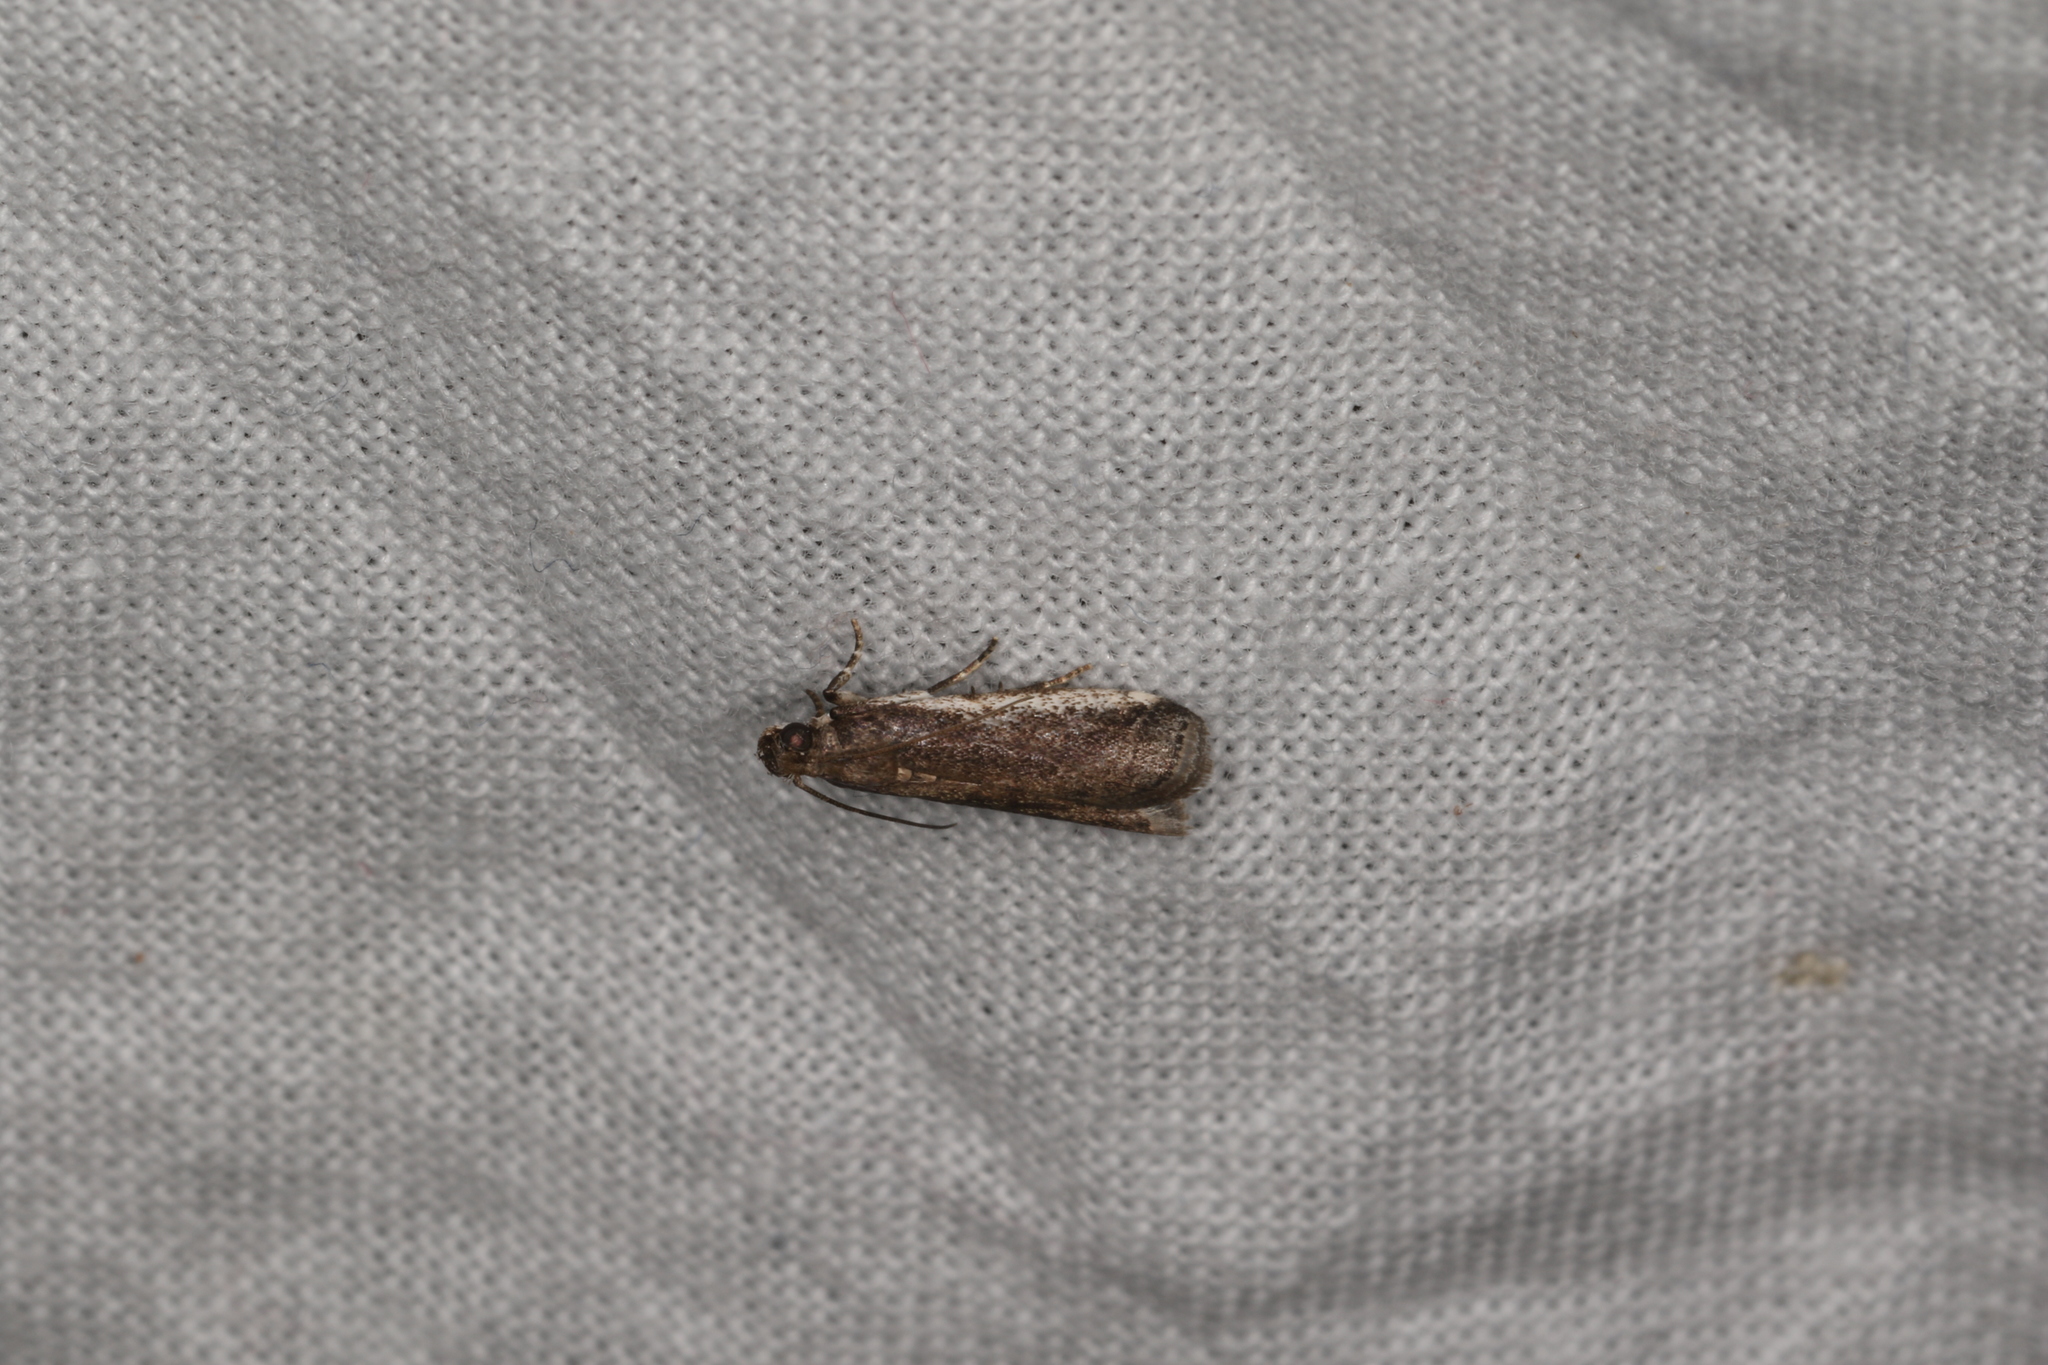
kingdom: Animalia
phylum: Arthropoda
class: Insecta
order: Lepidoptera
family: Pyralidae
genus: Assara
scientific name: Assara subarcuella
